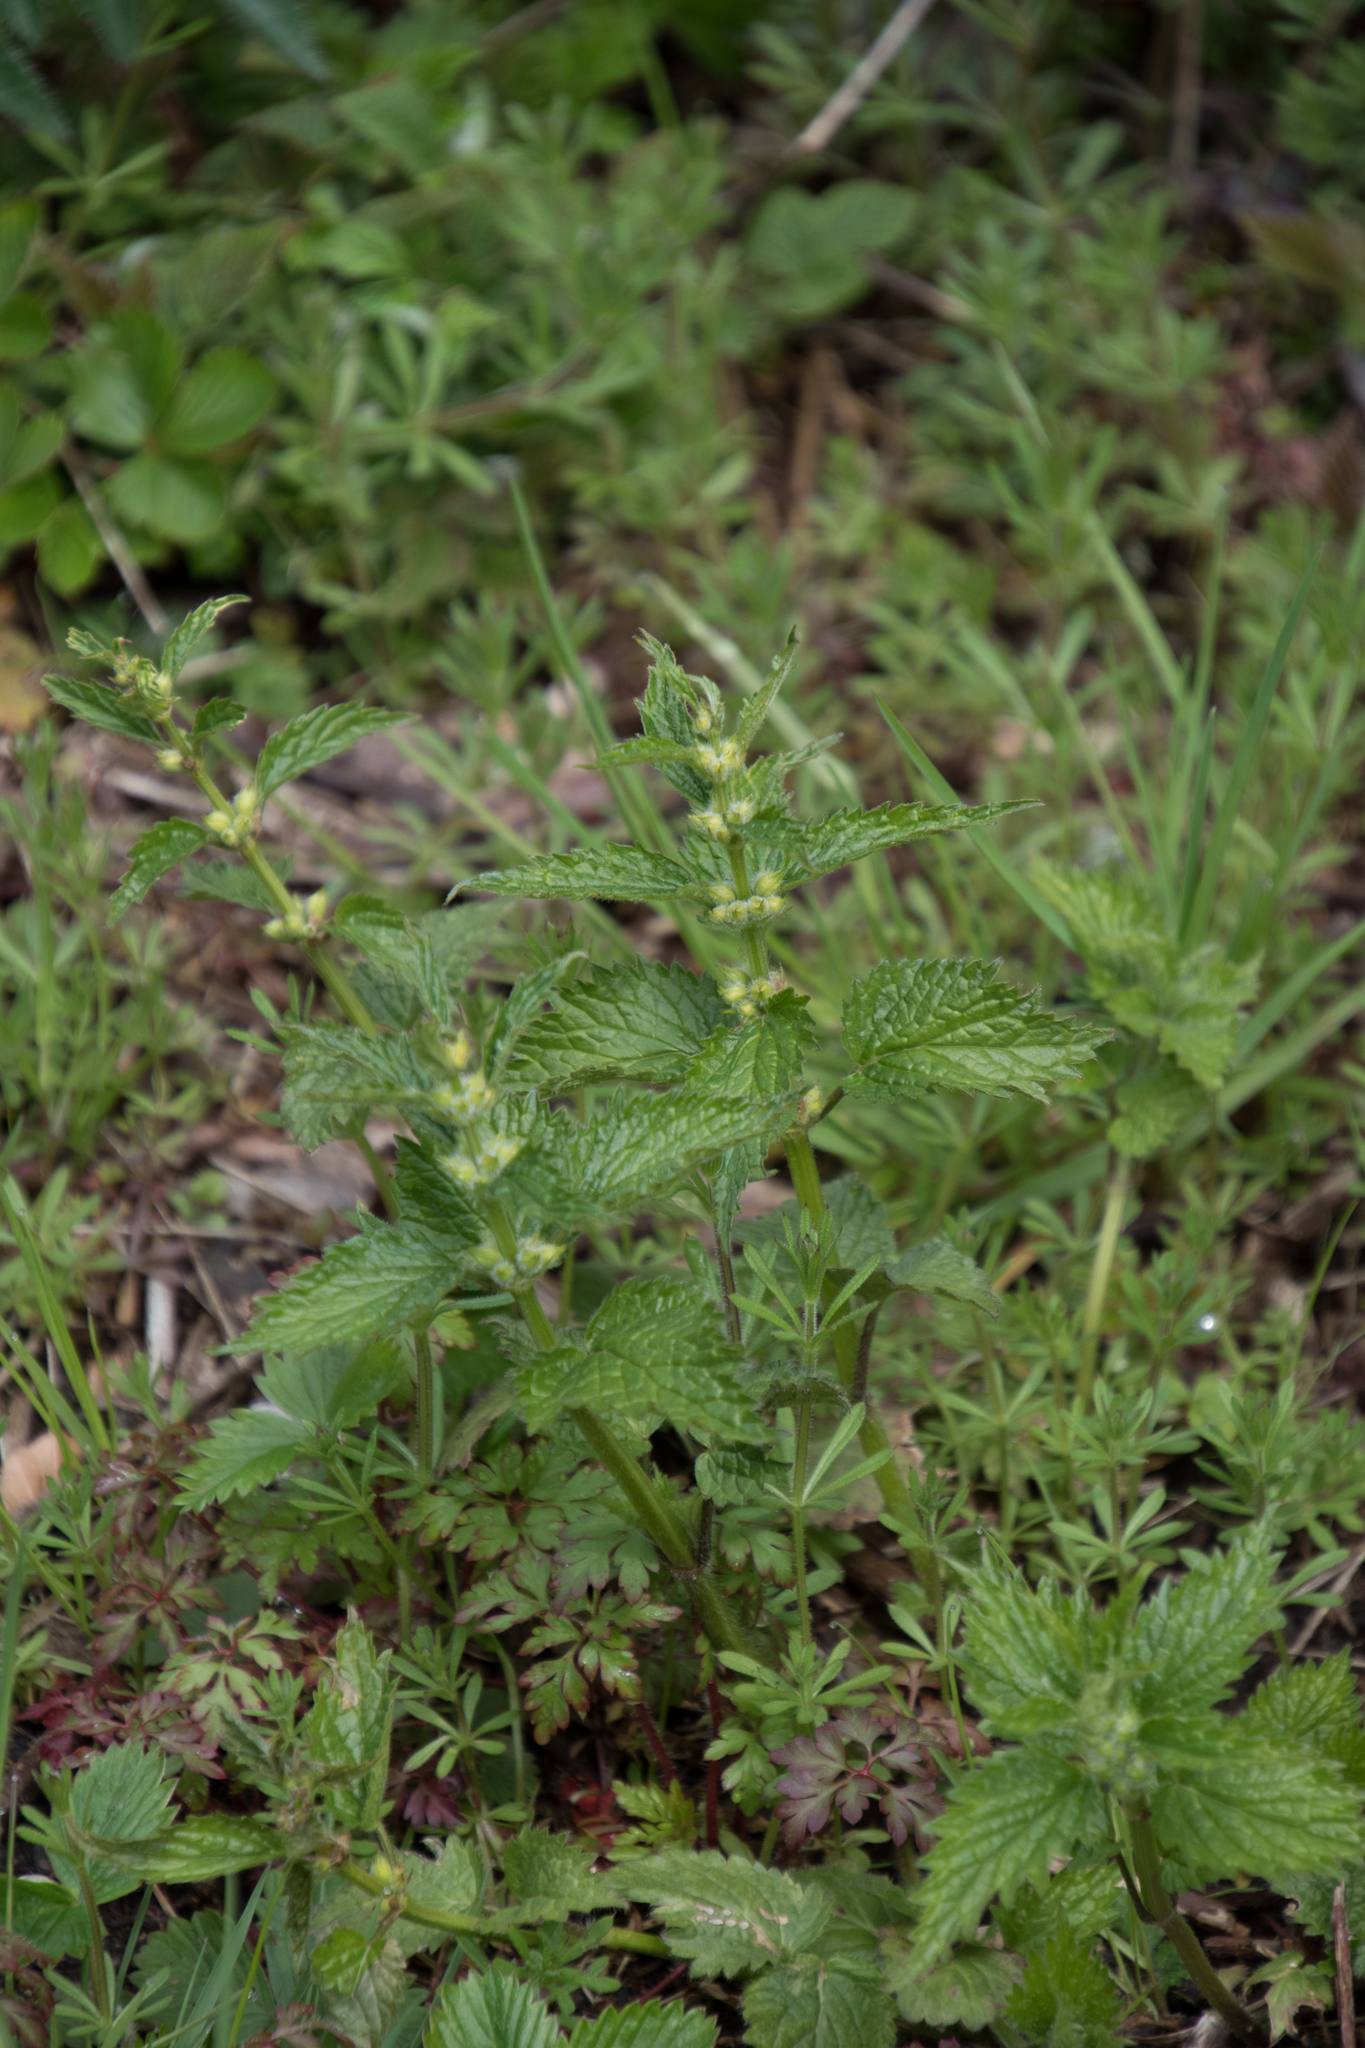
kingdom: Plantae
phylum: Tracheophyta
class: Magnoliopsida
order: Lamiales
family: Lamiaceae
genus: Lamium
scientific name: Lamium galeobdolon
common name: Yellow archangel
